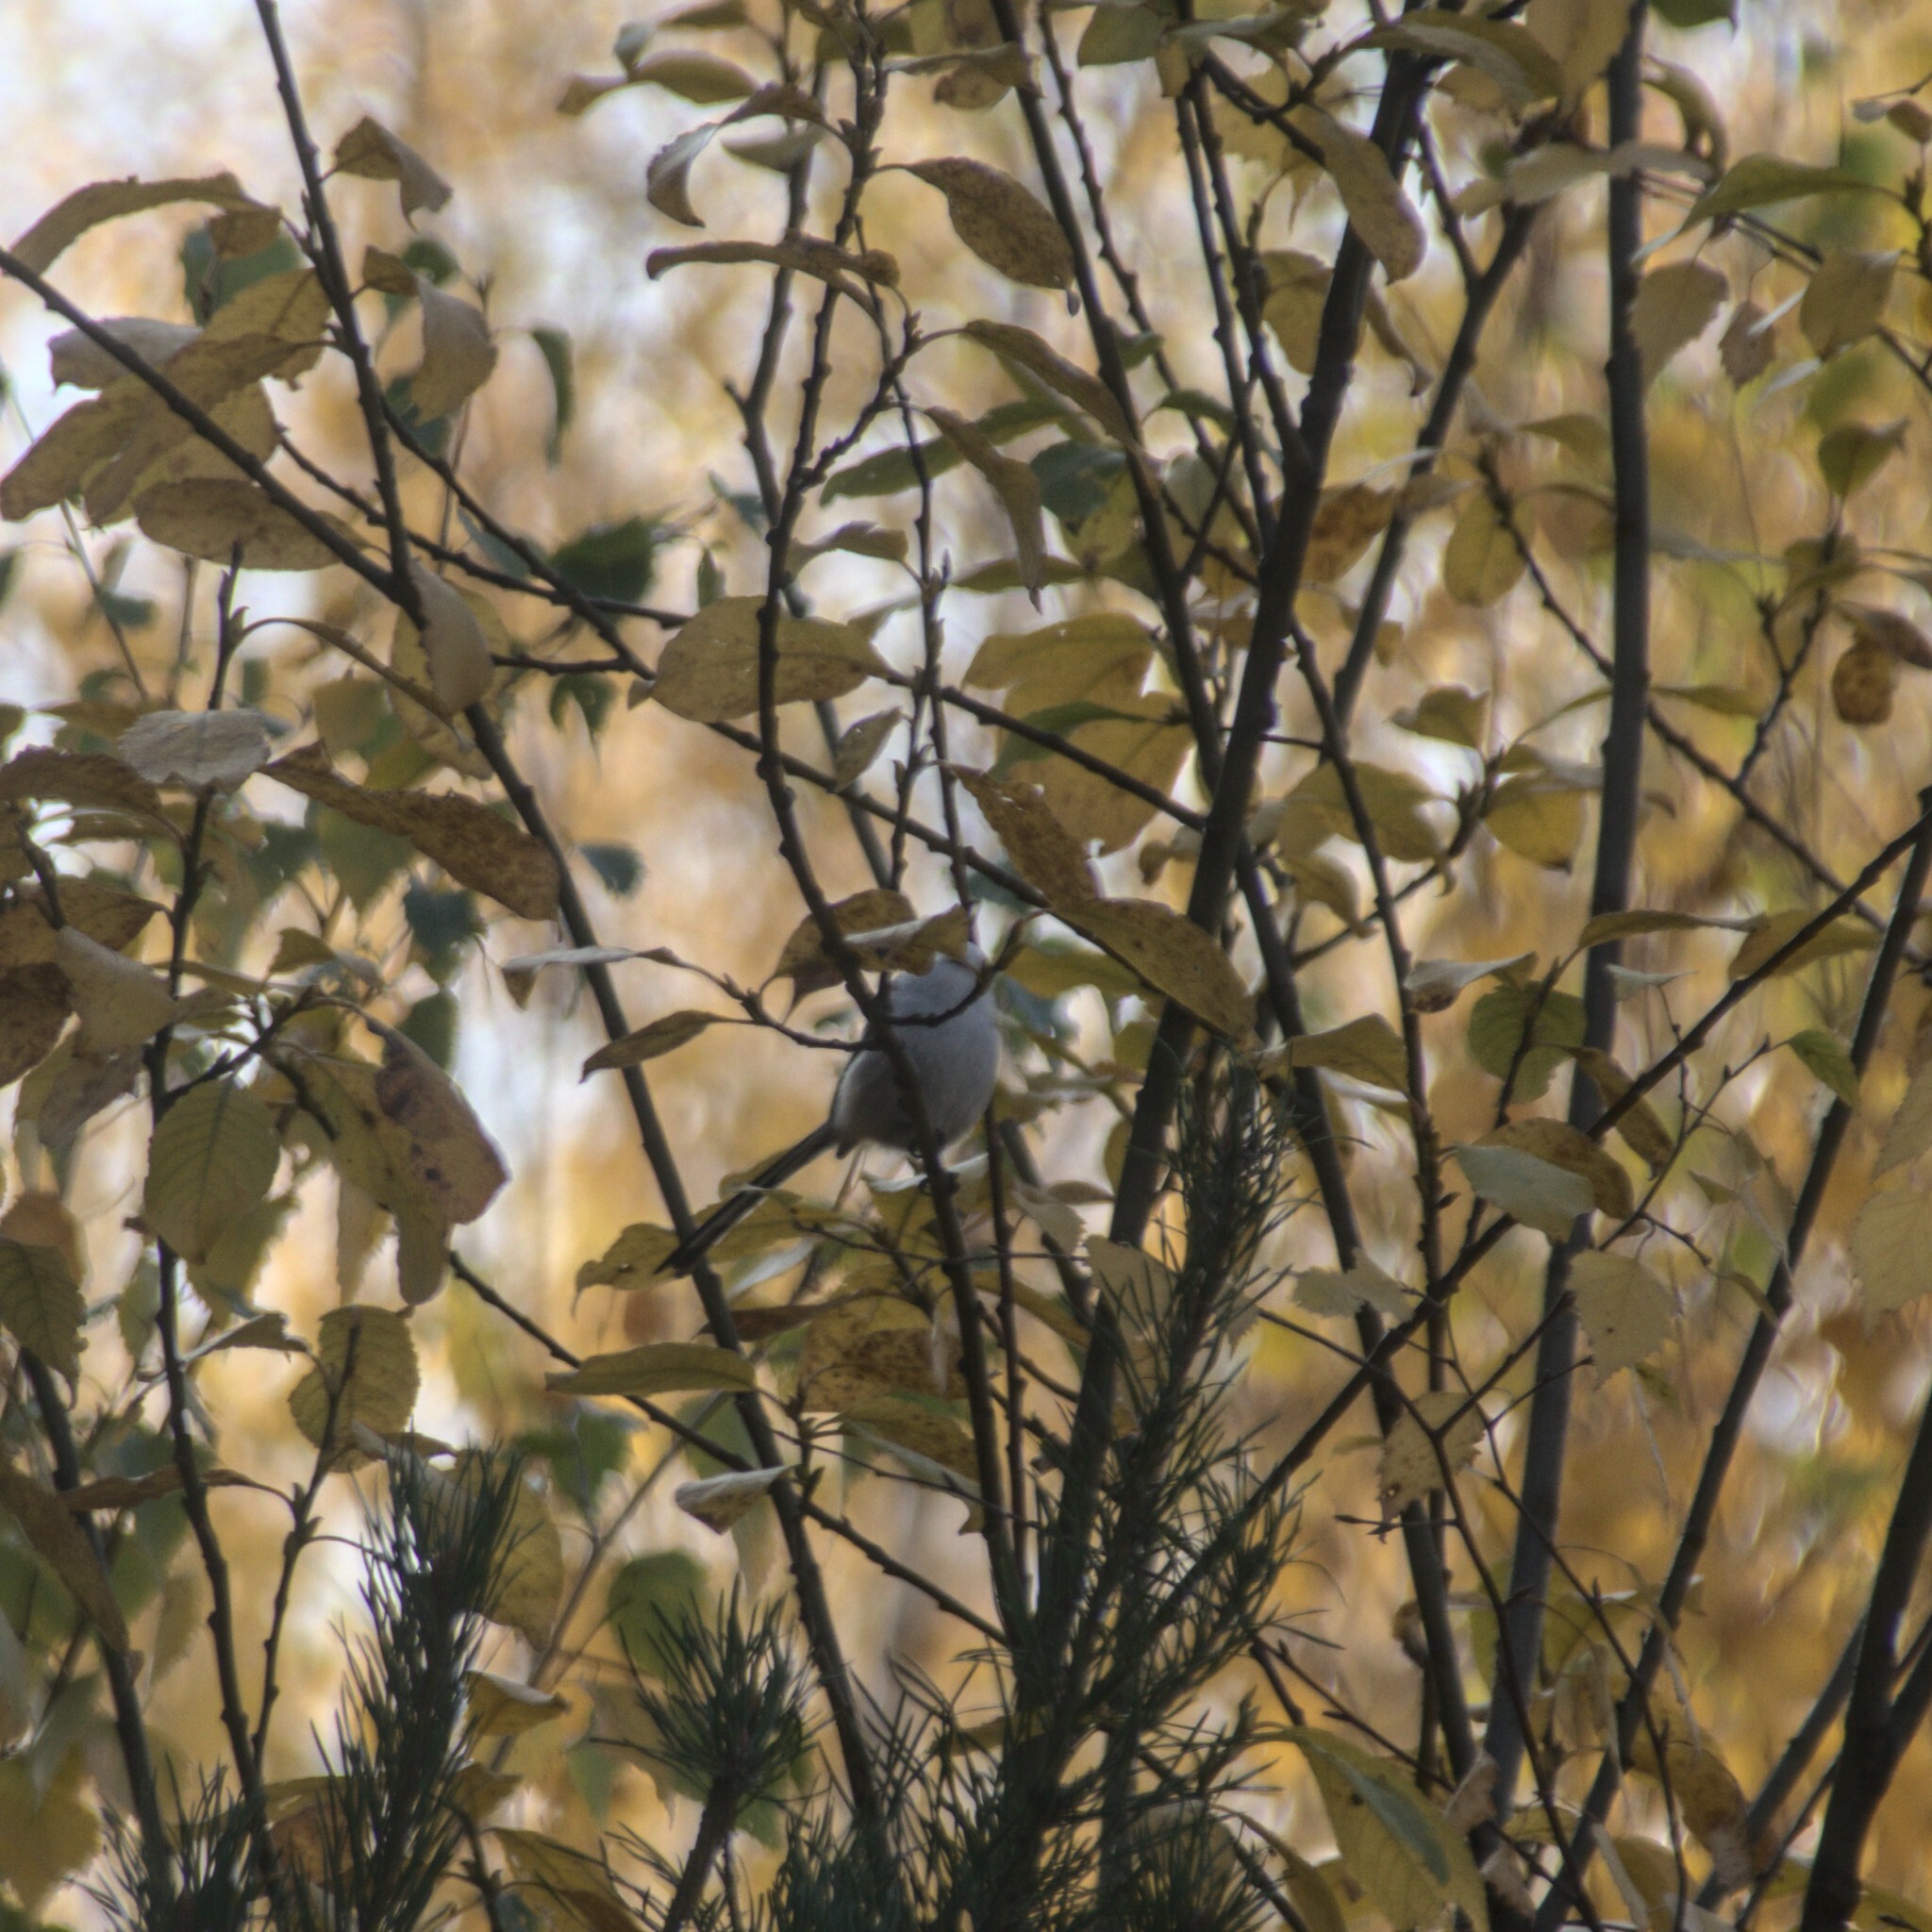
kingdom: Animalia
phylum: Chordata
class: Aves
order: Passeriformes
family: Aegithalidae
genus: Aegithalos
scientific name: Aegithalos caudatus
